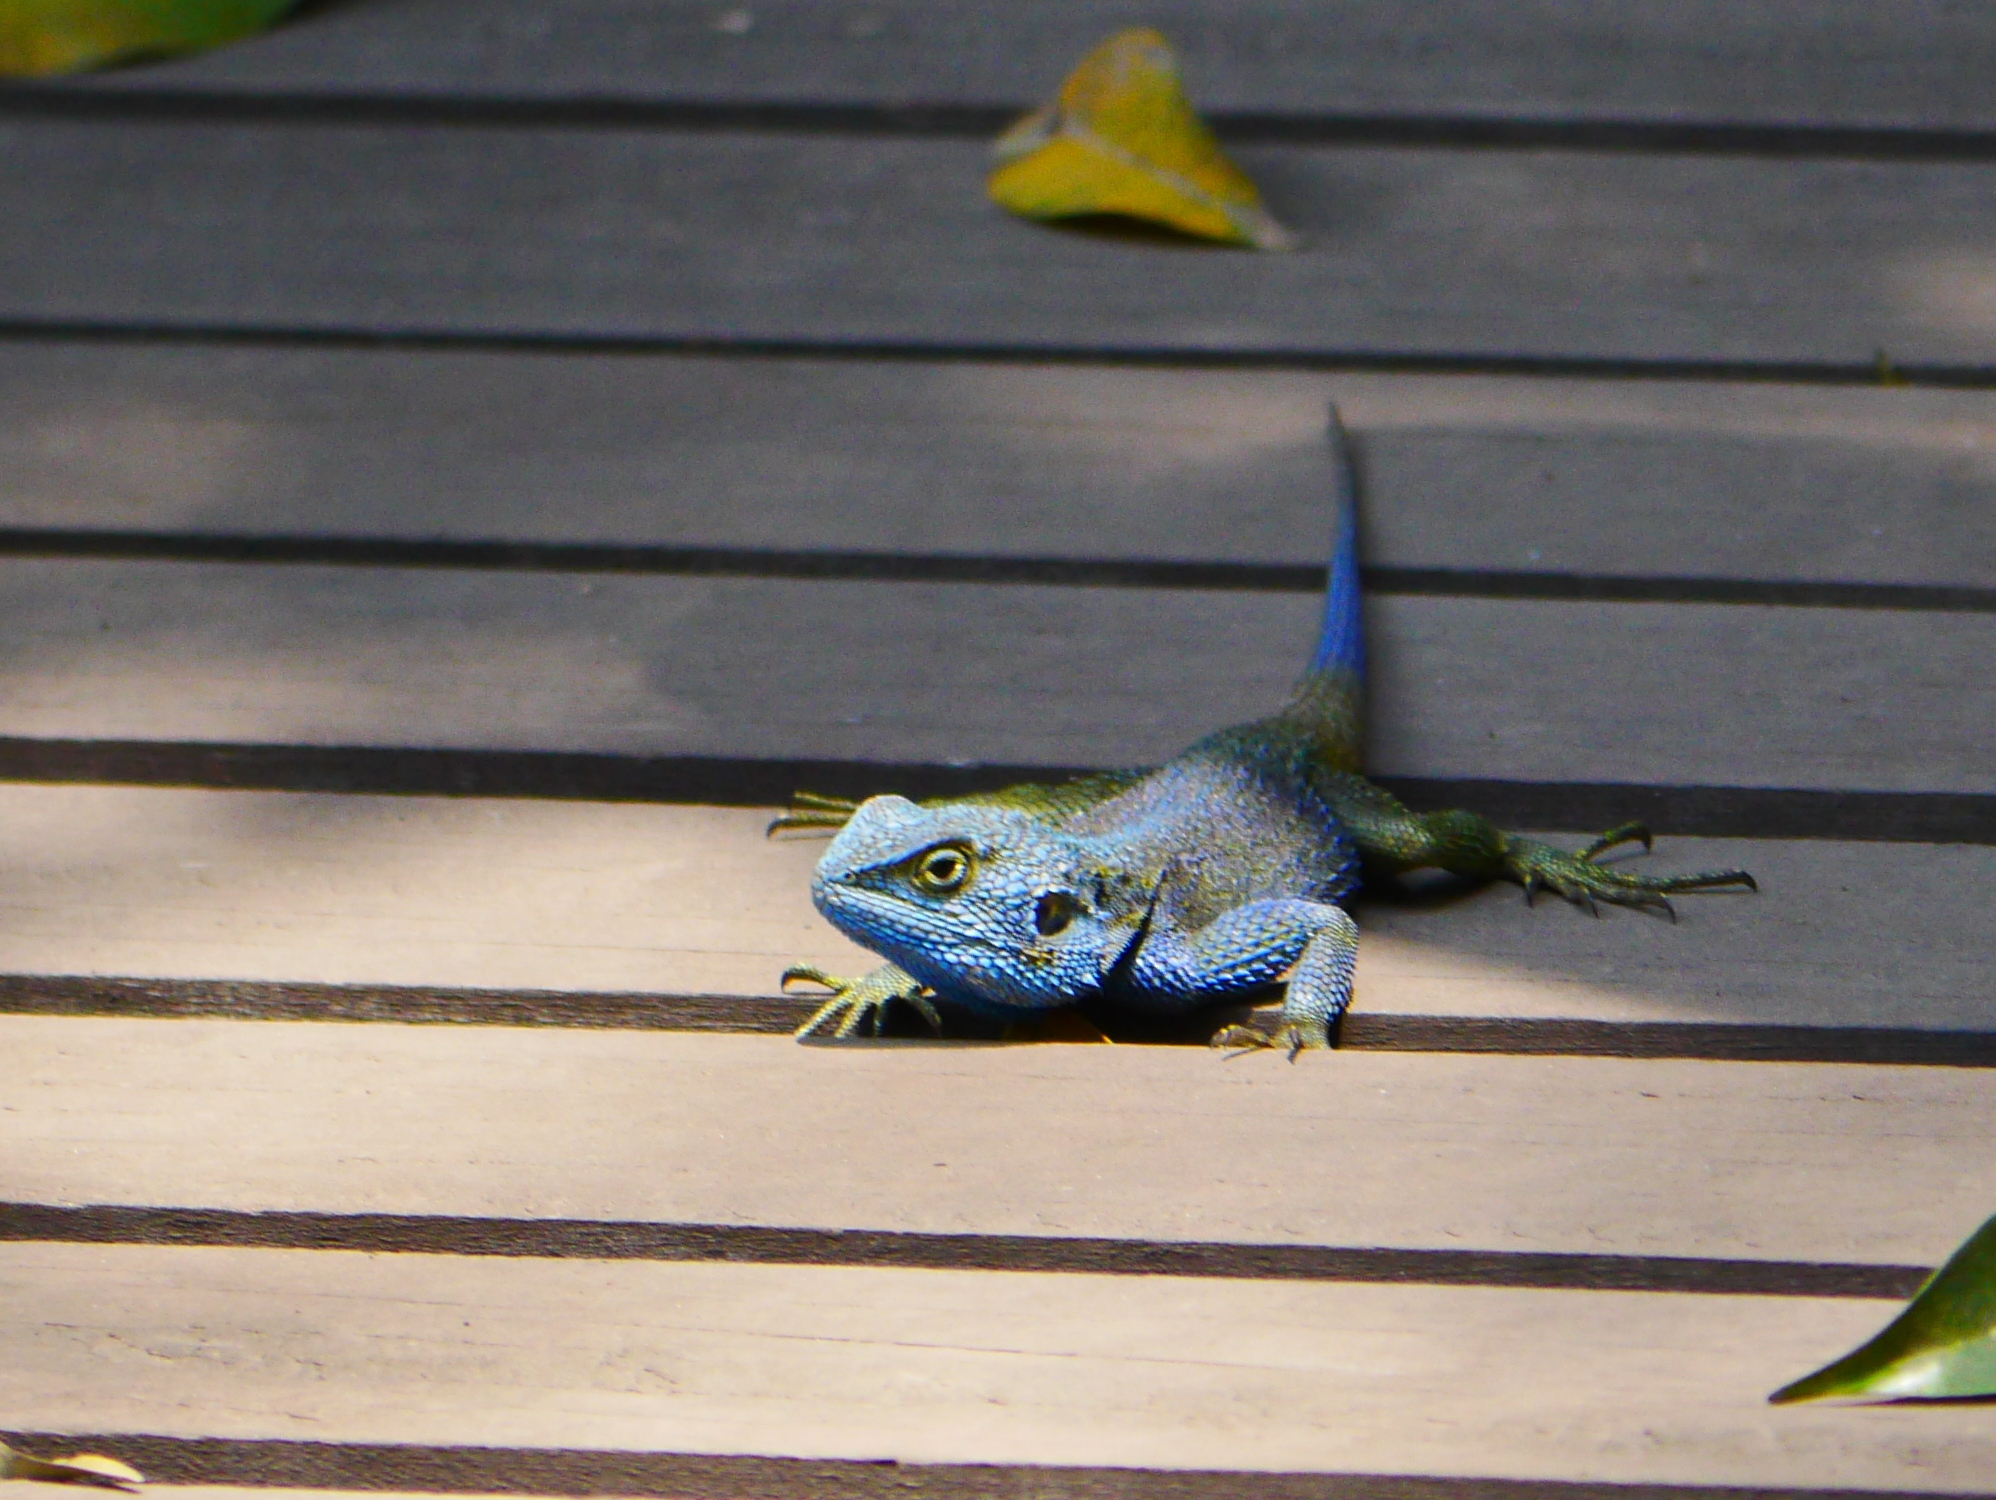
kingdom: Animalia
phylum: Chordata
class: Squamata
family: Agamidae
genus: Acanthocercus
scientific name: Acanthocercus
